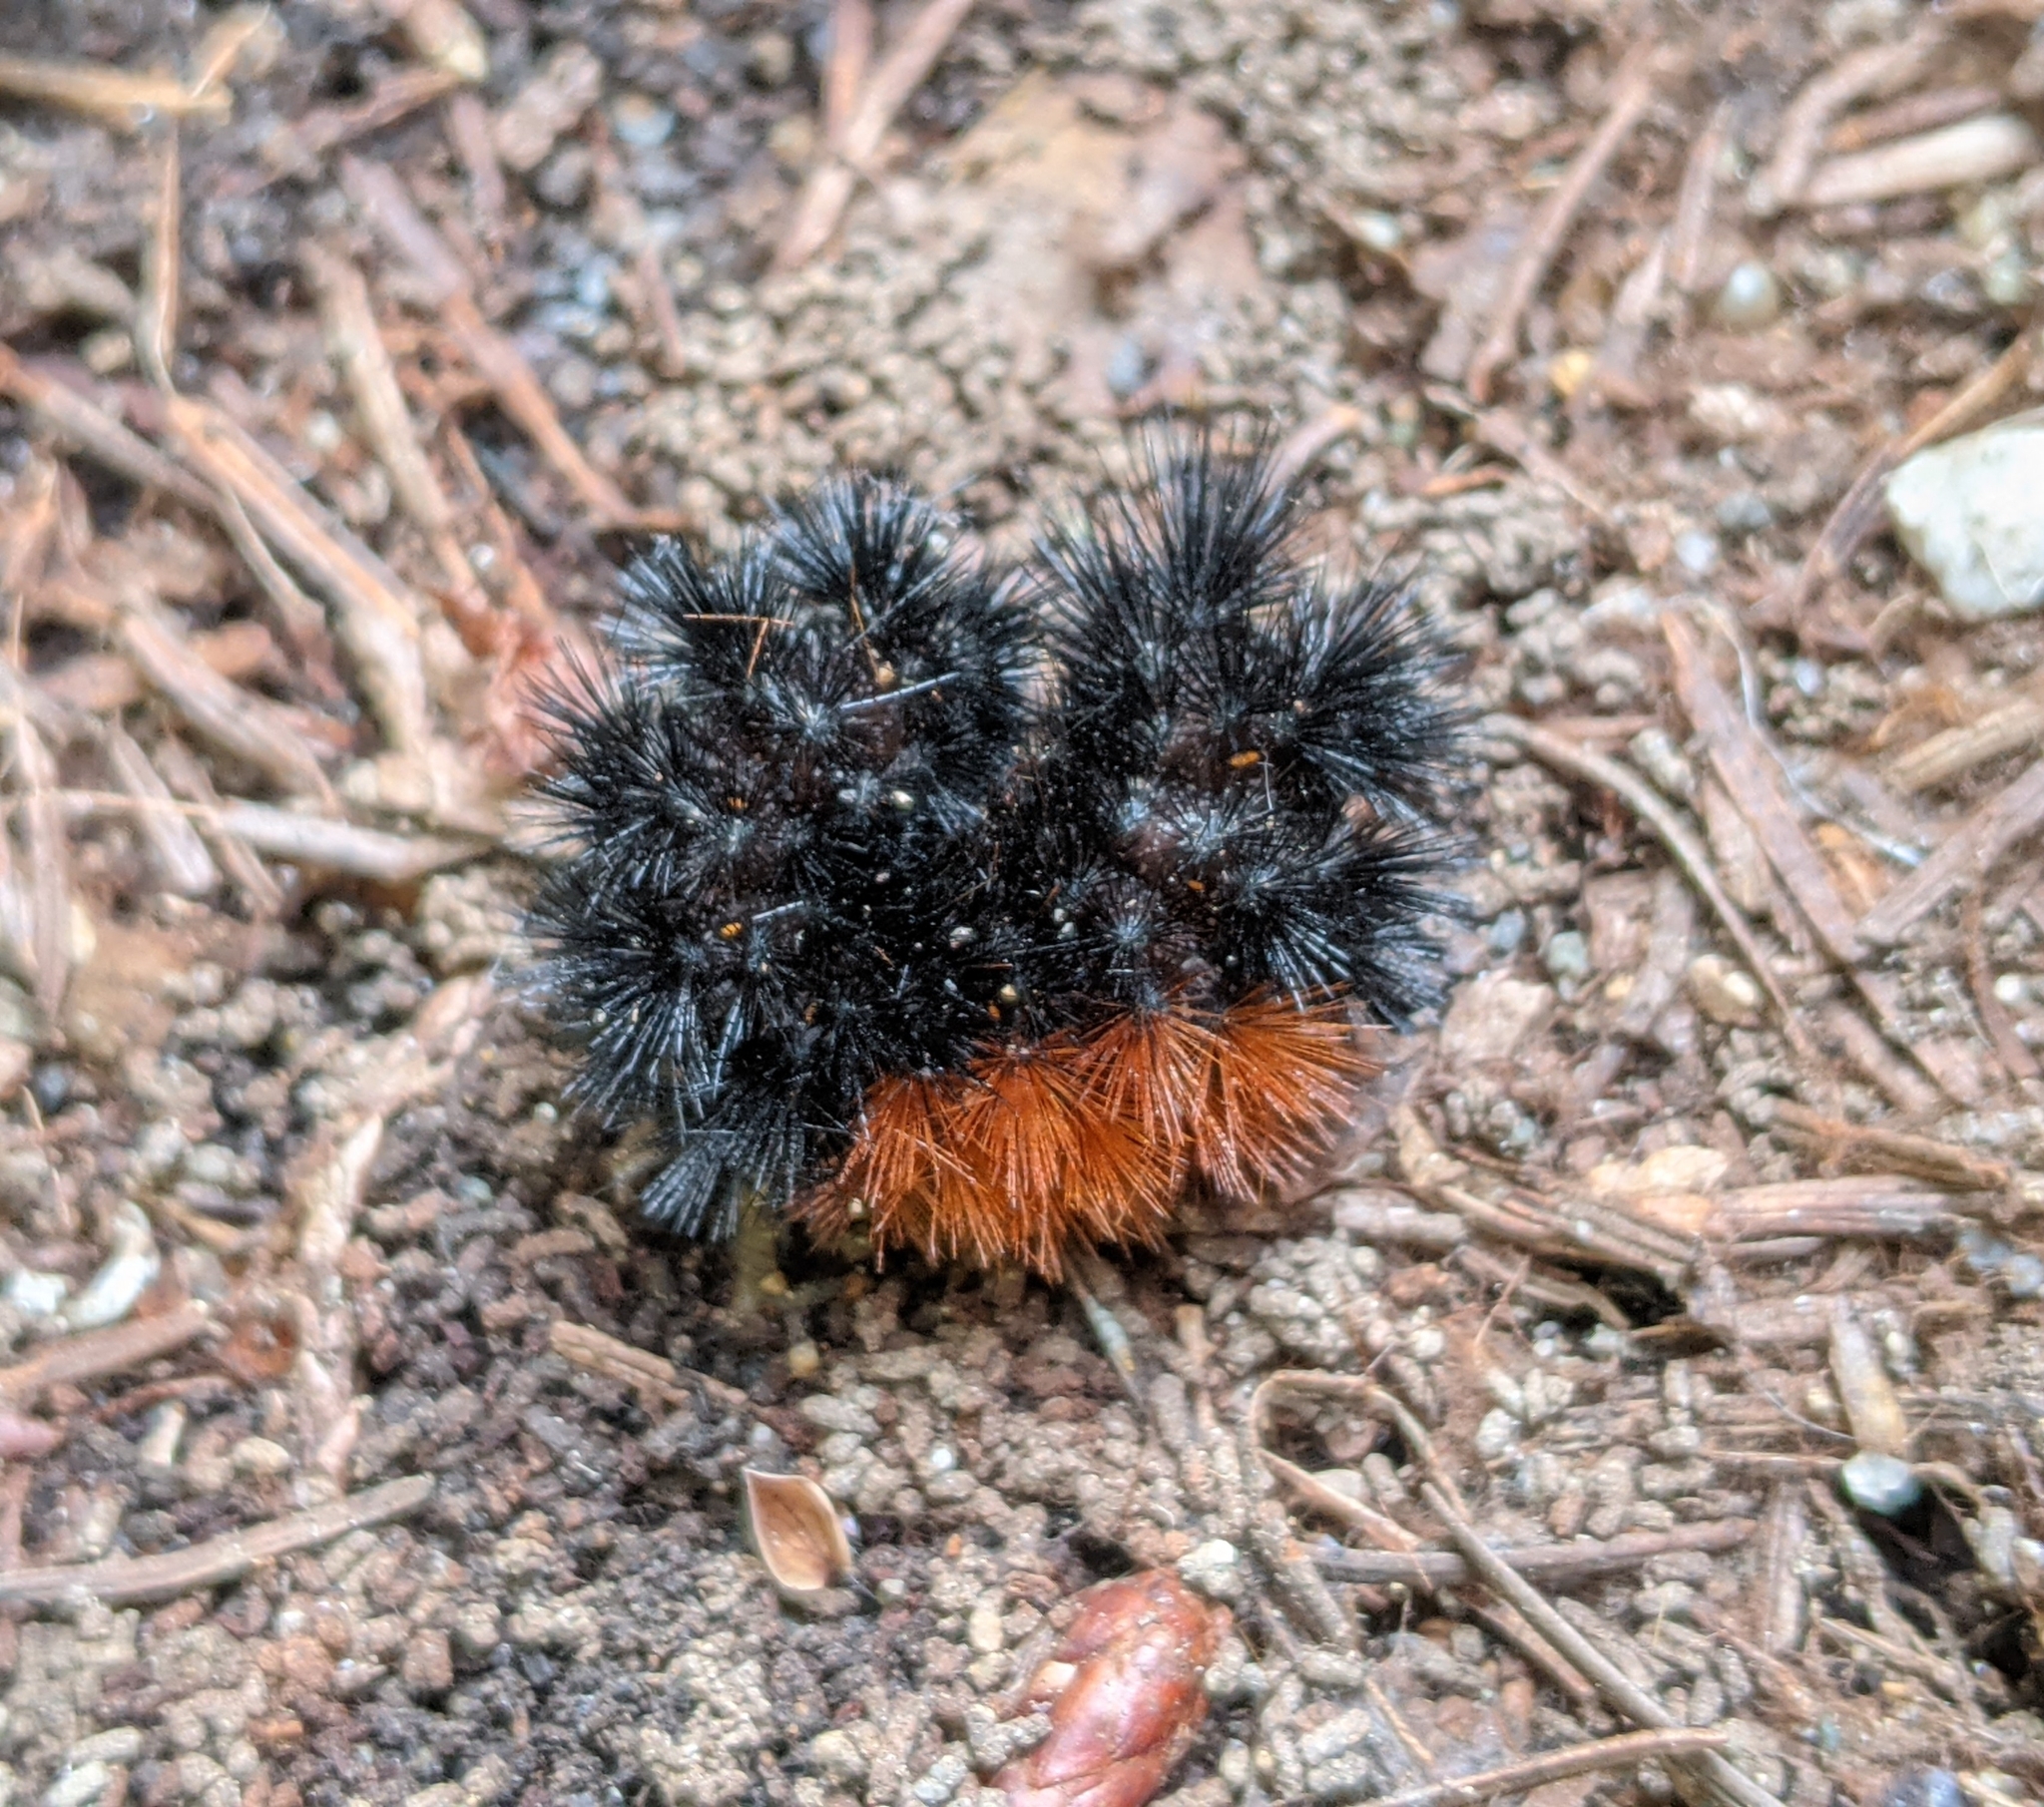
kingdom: Animalia
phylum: Arthropoda
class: Insecta
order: Lepidoptera
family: Erebidae
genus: Pyrrharctia
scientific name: Pyrrharctia isabella
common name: Isabella tiger moth
